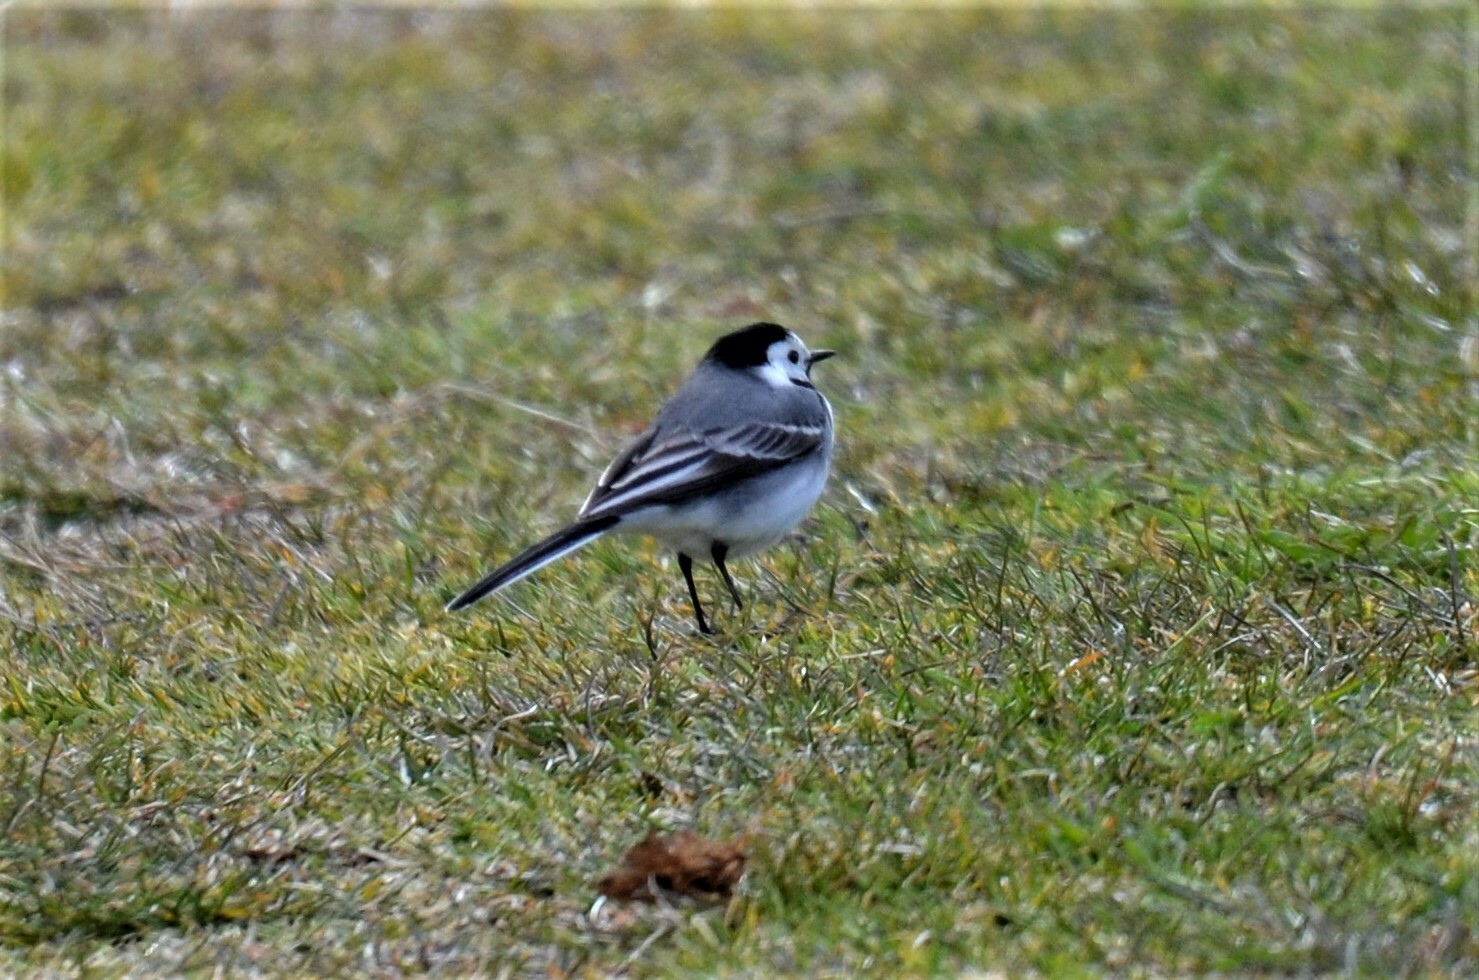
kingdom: Animalia
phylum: Chordata
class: Aves
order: Passeriformes
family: Motacillidae
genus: Motacilla
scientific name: Motacilla alba
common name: White wagtail
